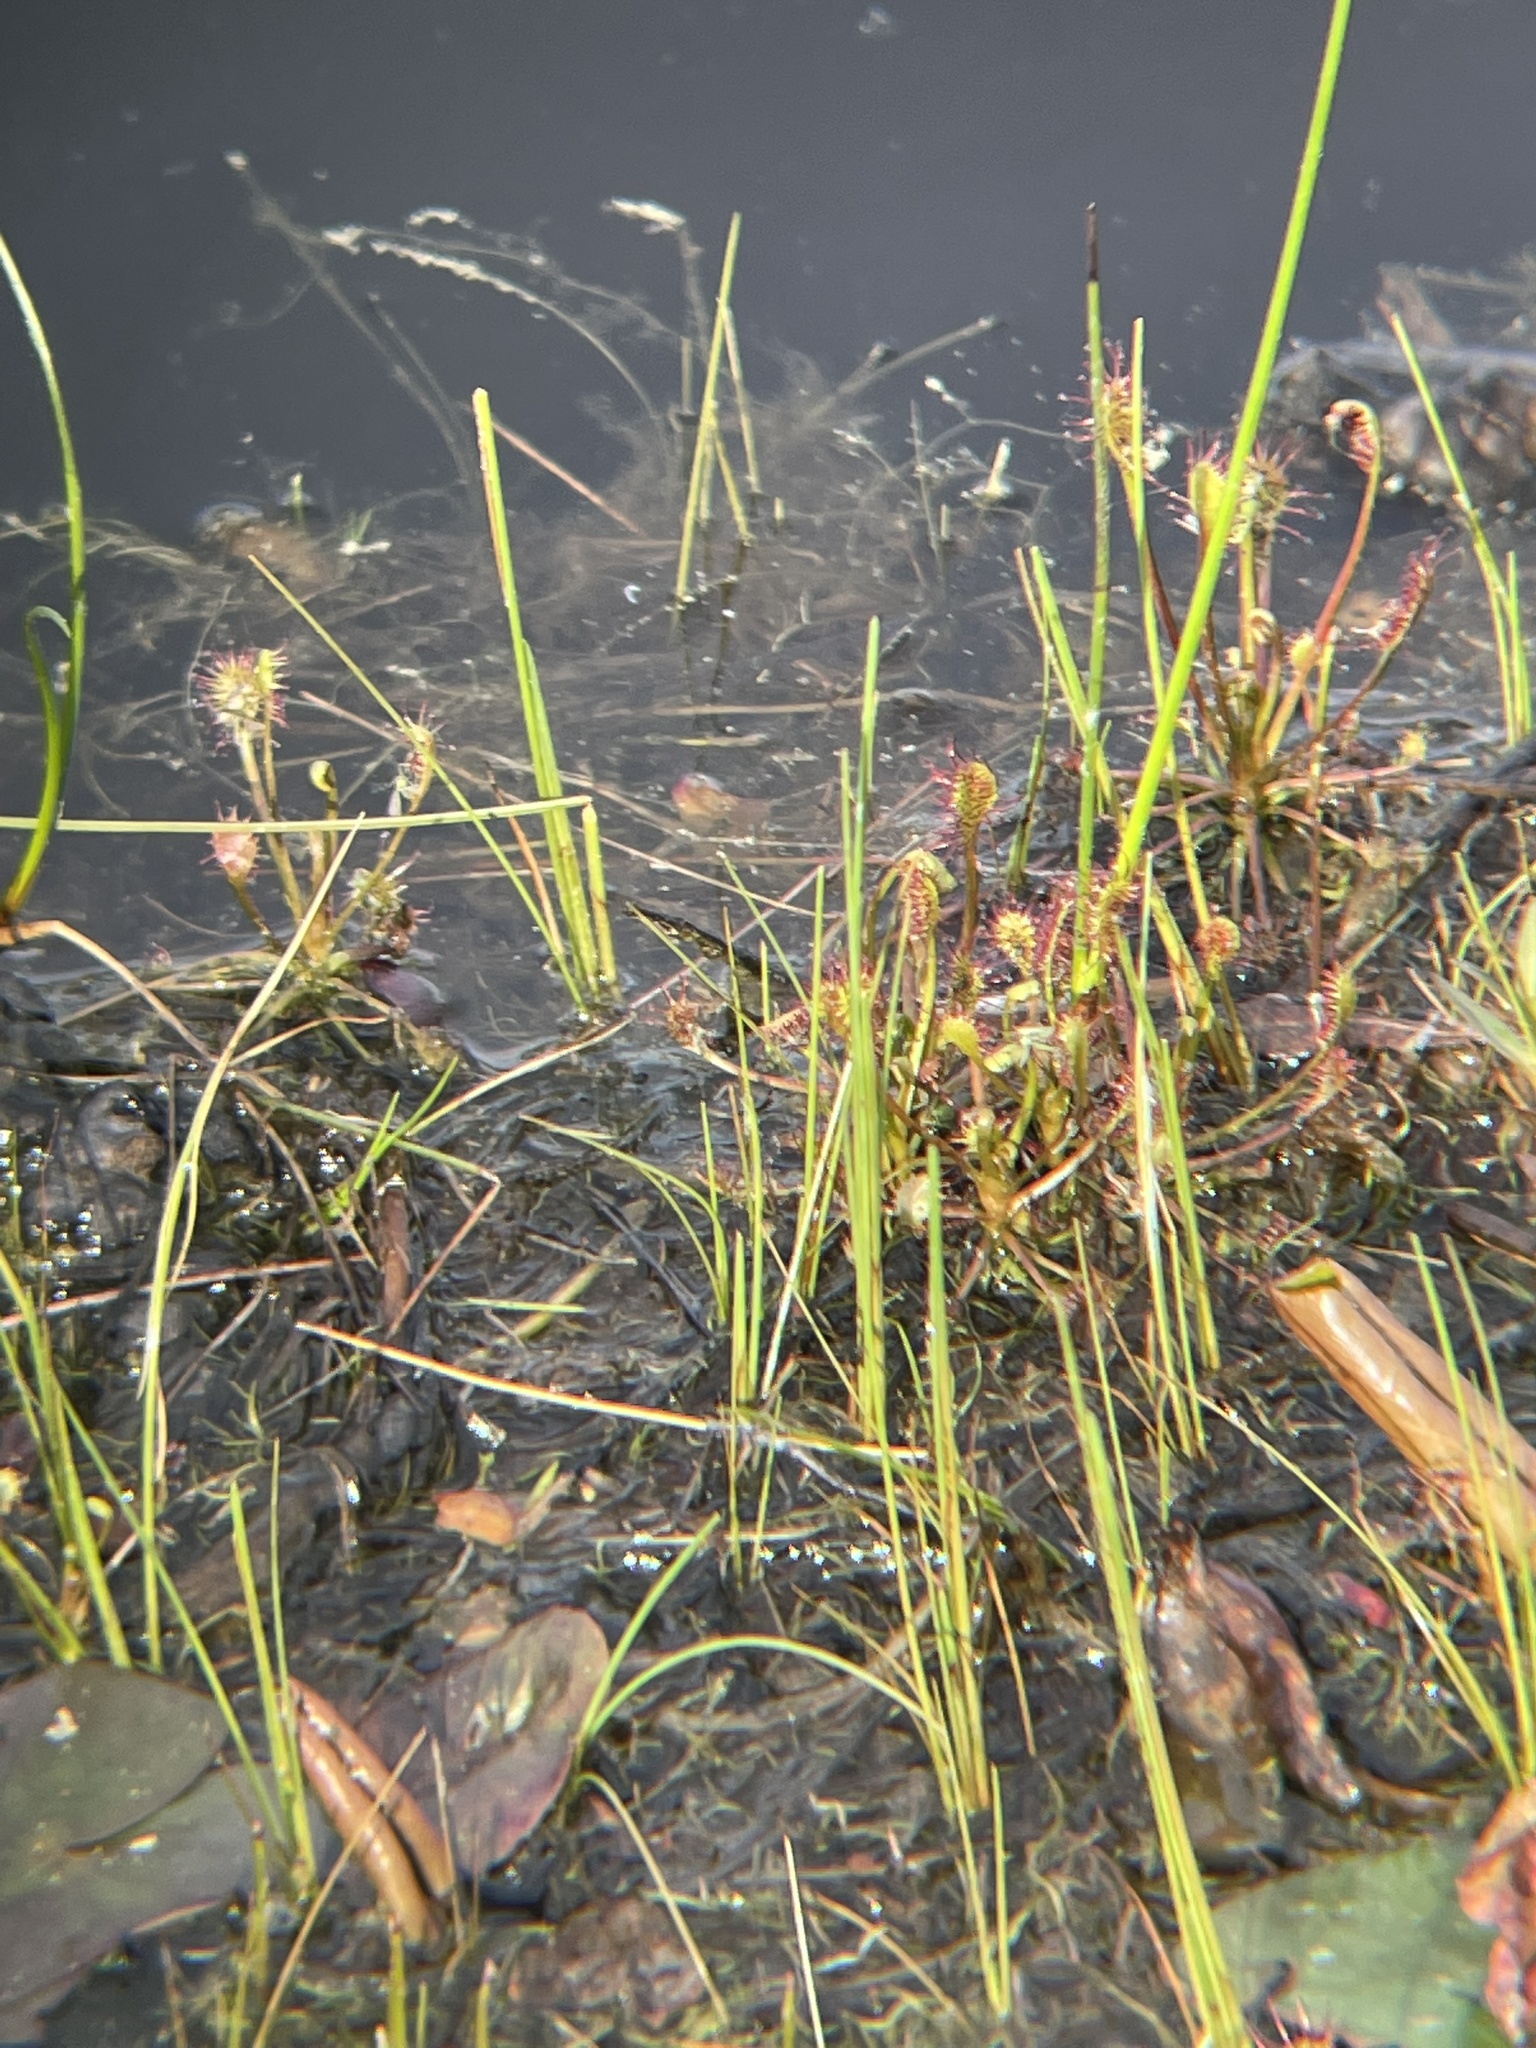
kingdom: Plantae
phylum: Tracheophyta
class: Magnoliopsida
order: Caryophyllales
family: Droseraceae
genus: Drosera
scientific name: Drosera intermedia
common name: Oblong-leaved sundew
